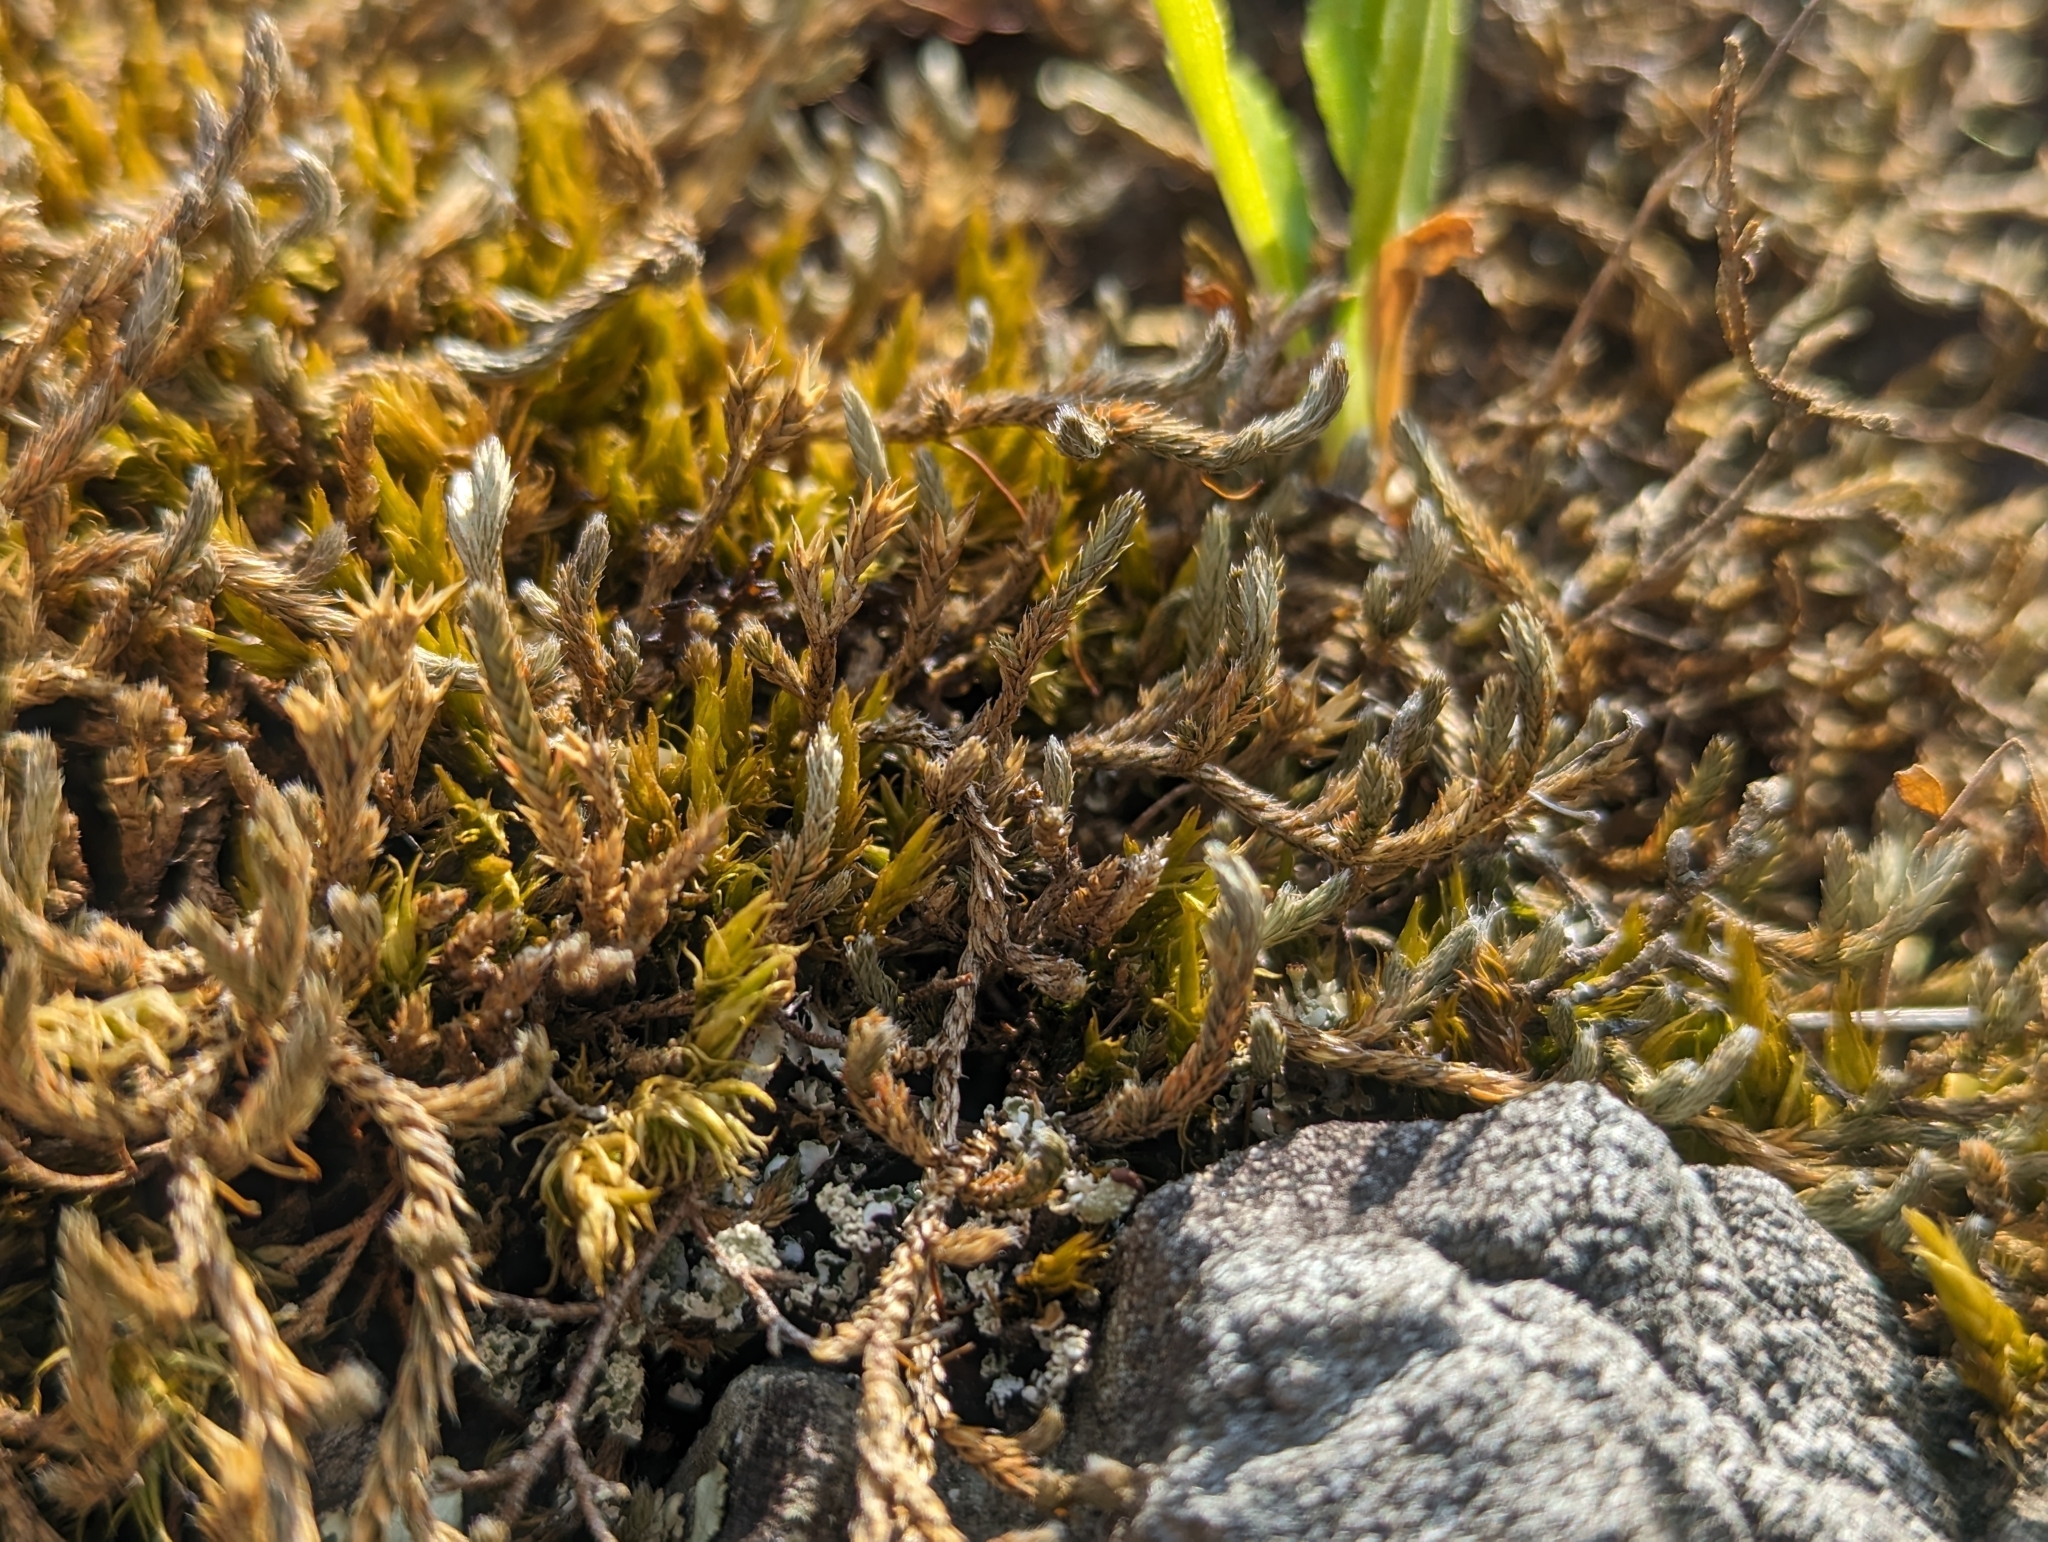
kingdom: Plantae
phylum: Tracheophyta
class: Lycopodiopsida
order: Selaginellales
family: Selaginellaceae
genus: Selaginella
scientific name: Selaginella wallacei
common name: Wallace's selaginella
